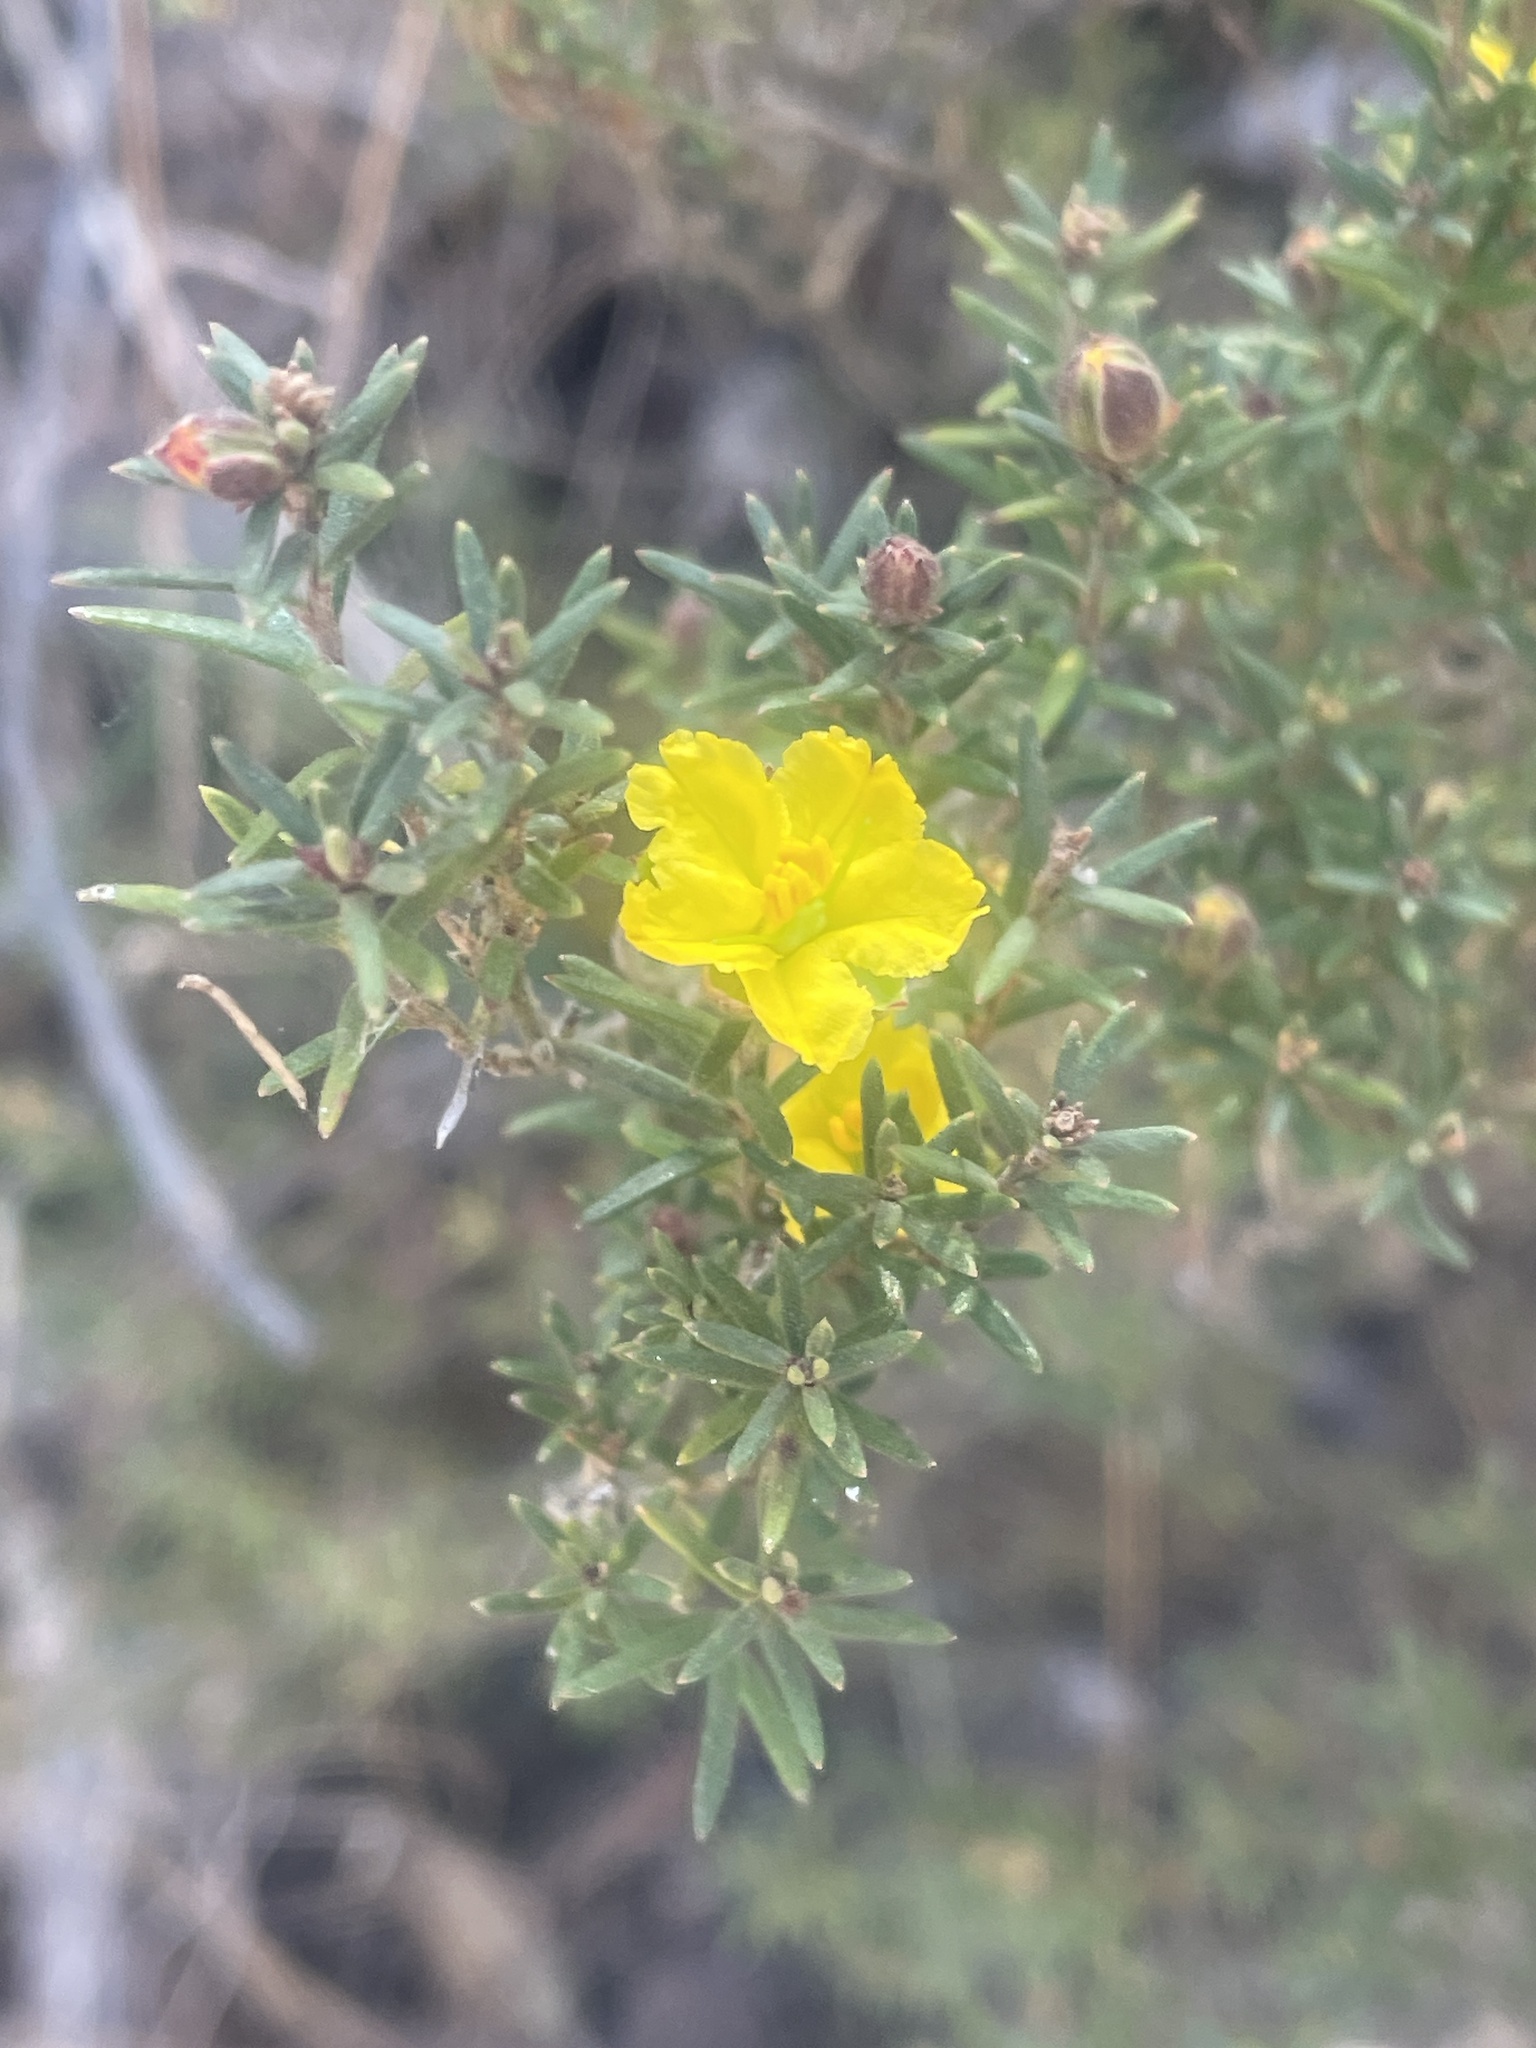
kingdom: Plantae
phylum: Tracheophyta
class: Magnoliopsida
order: Dilleniales
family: Dilleniaceae
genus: Hibbertia
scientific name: Hibbertia calycina
